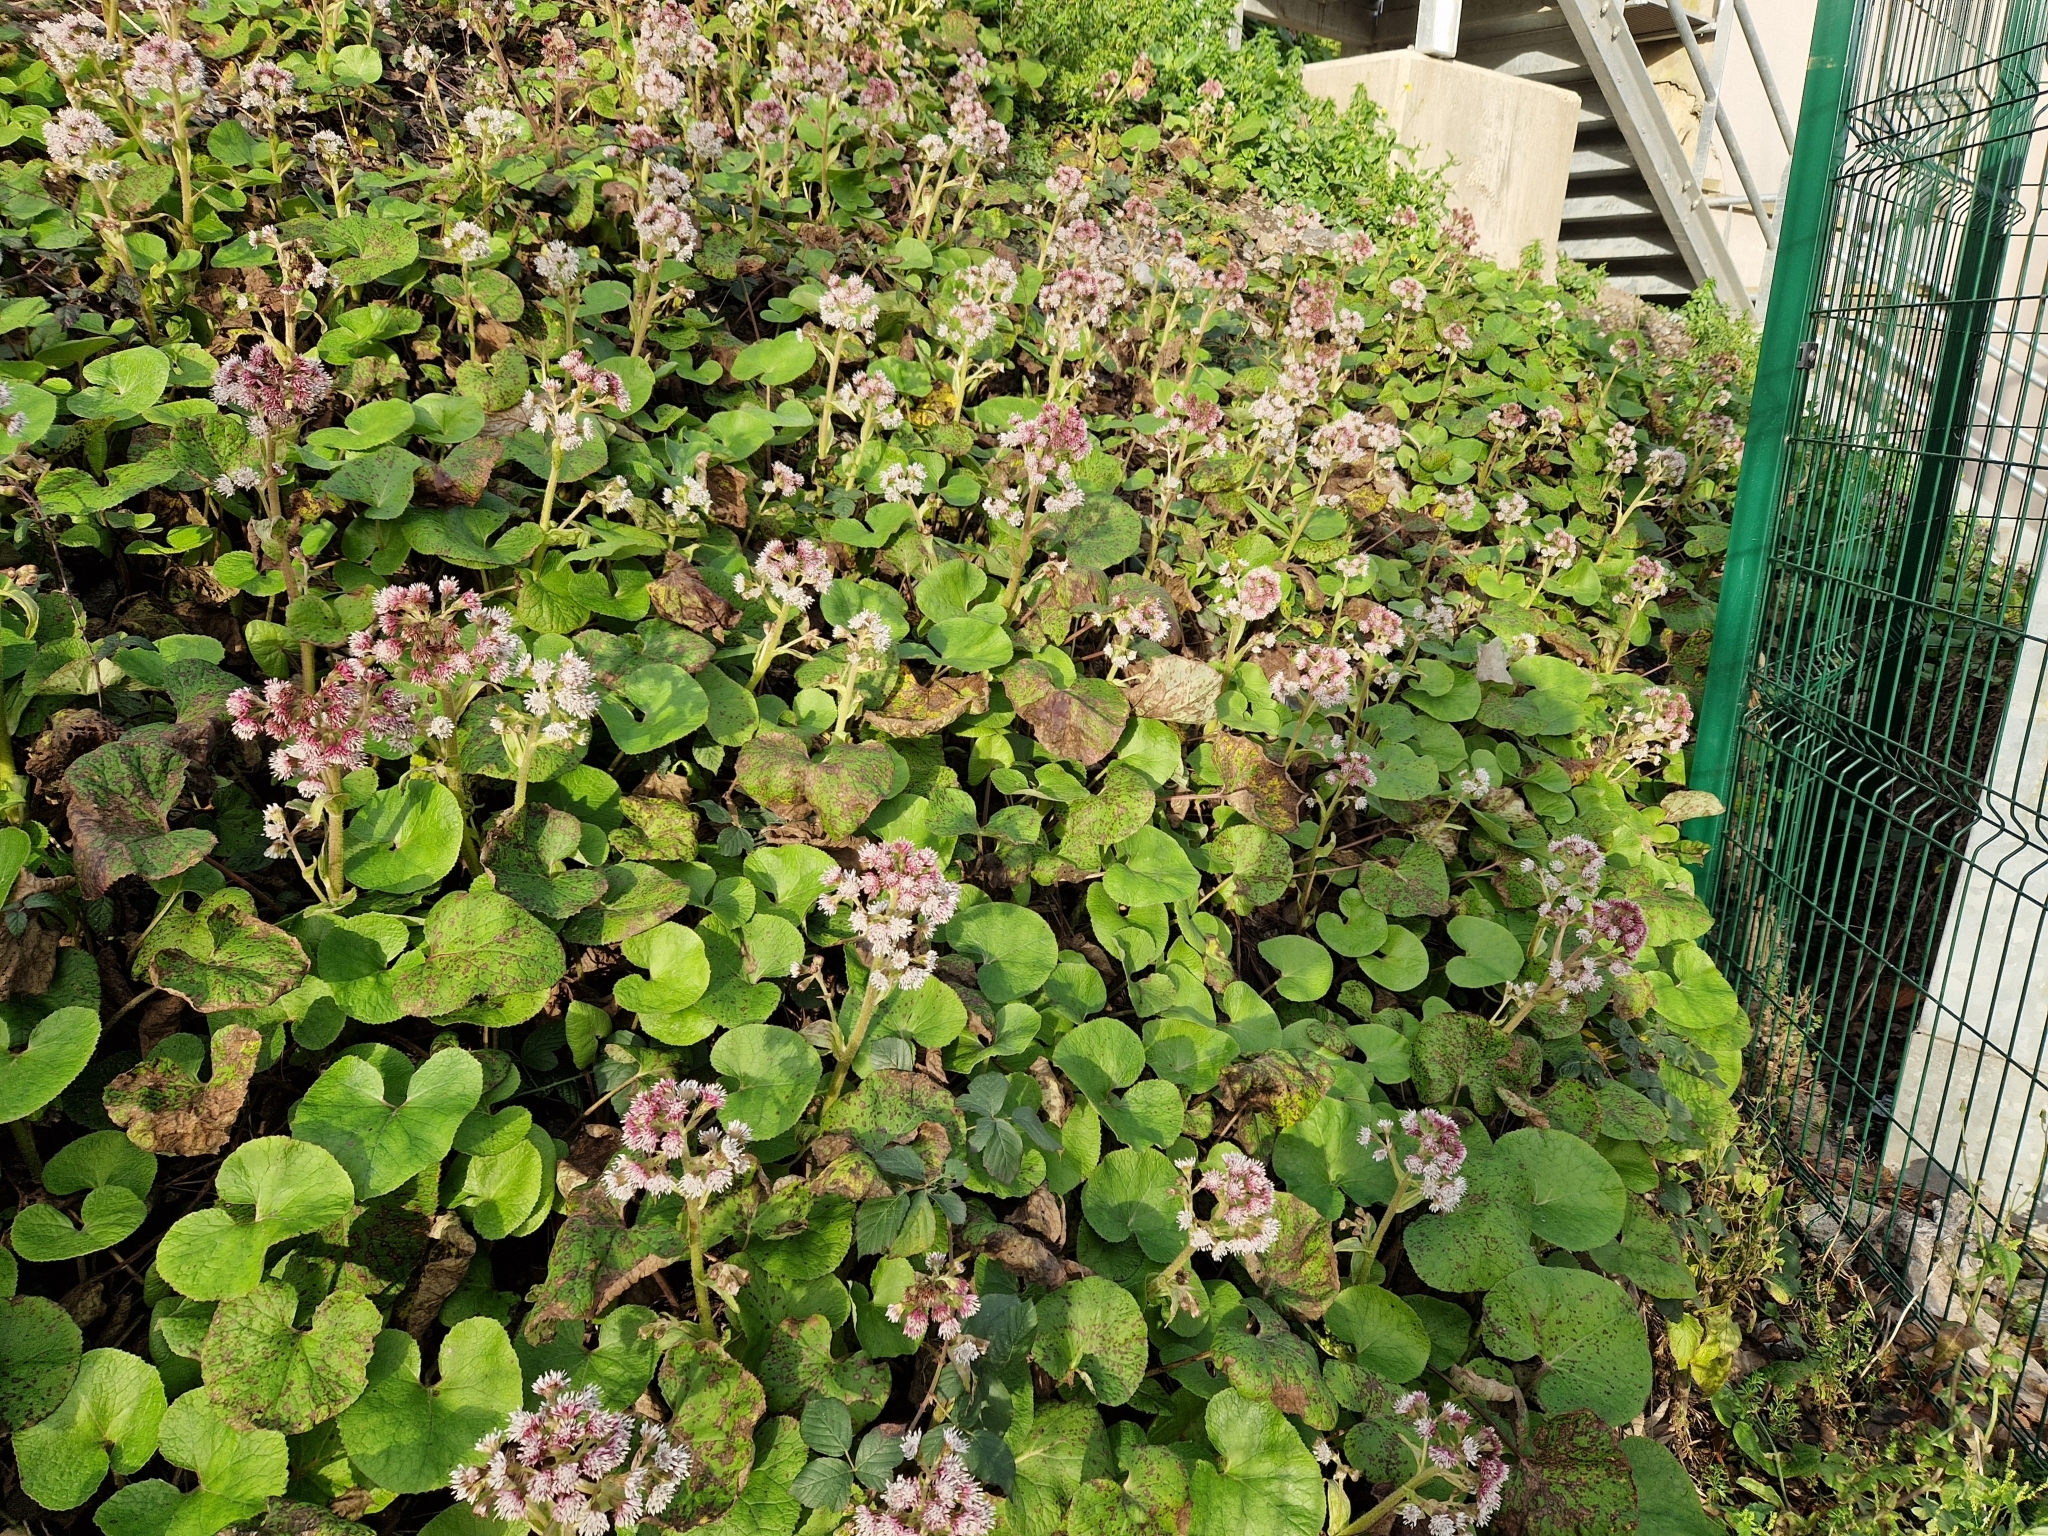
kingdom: Plantae
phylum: Tracheophyta
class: Magnoliopsida
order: Asterales
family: Asteraceae
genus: Petasites
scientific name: Petasites pyrenaicus
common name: Winter heliotrope
